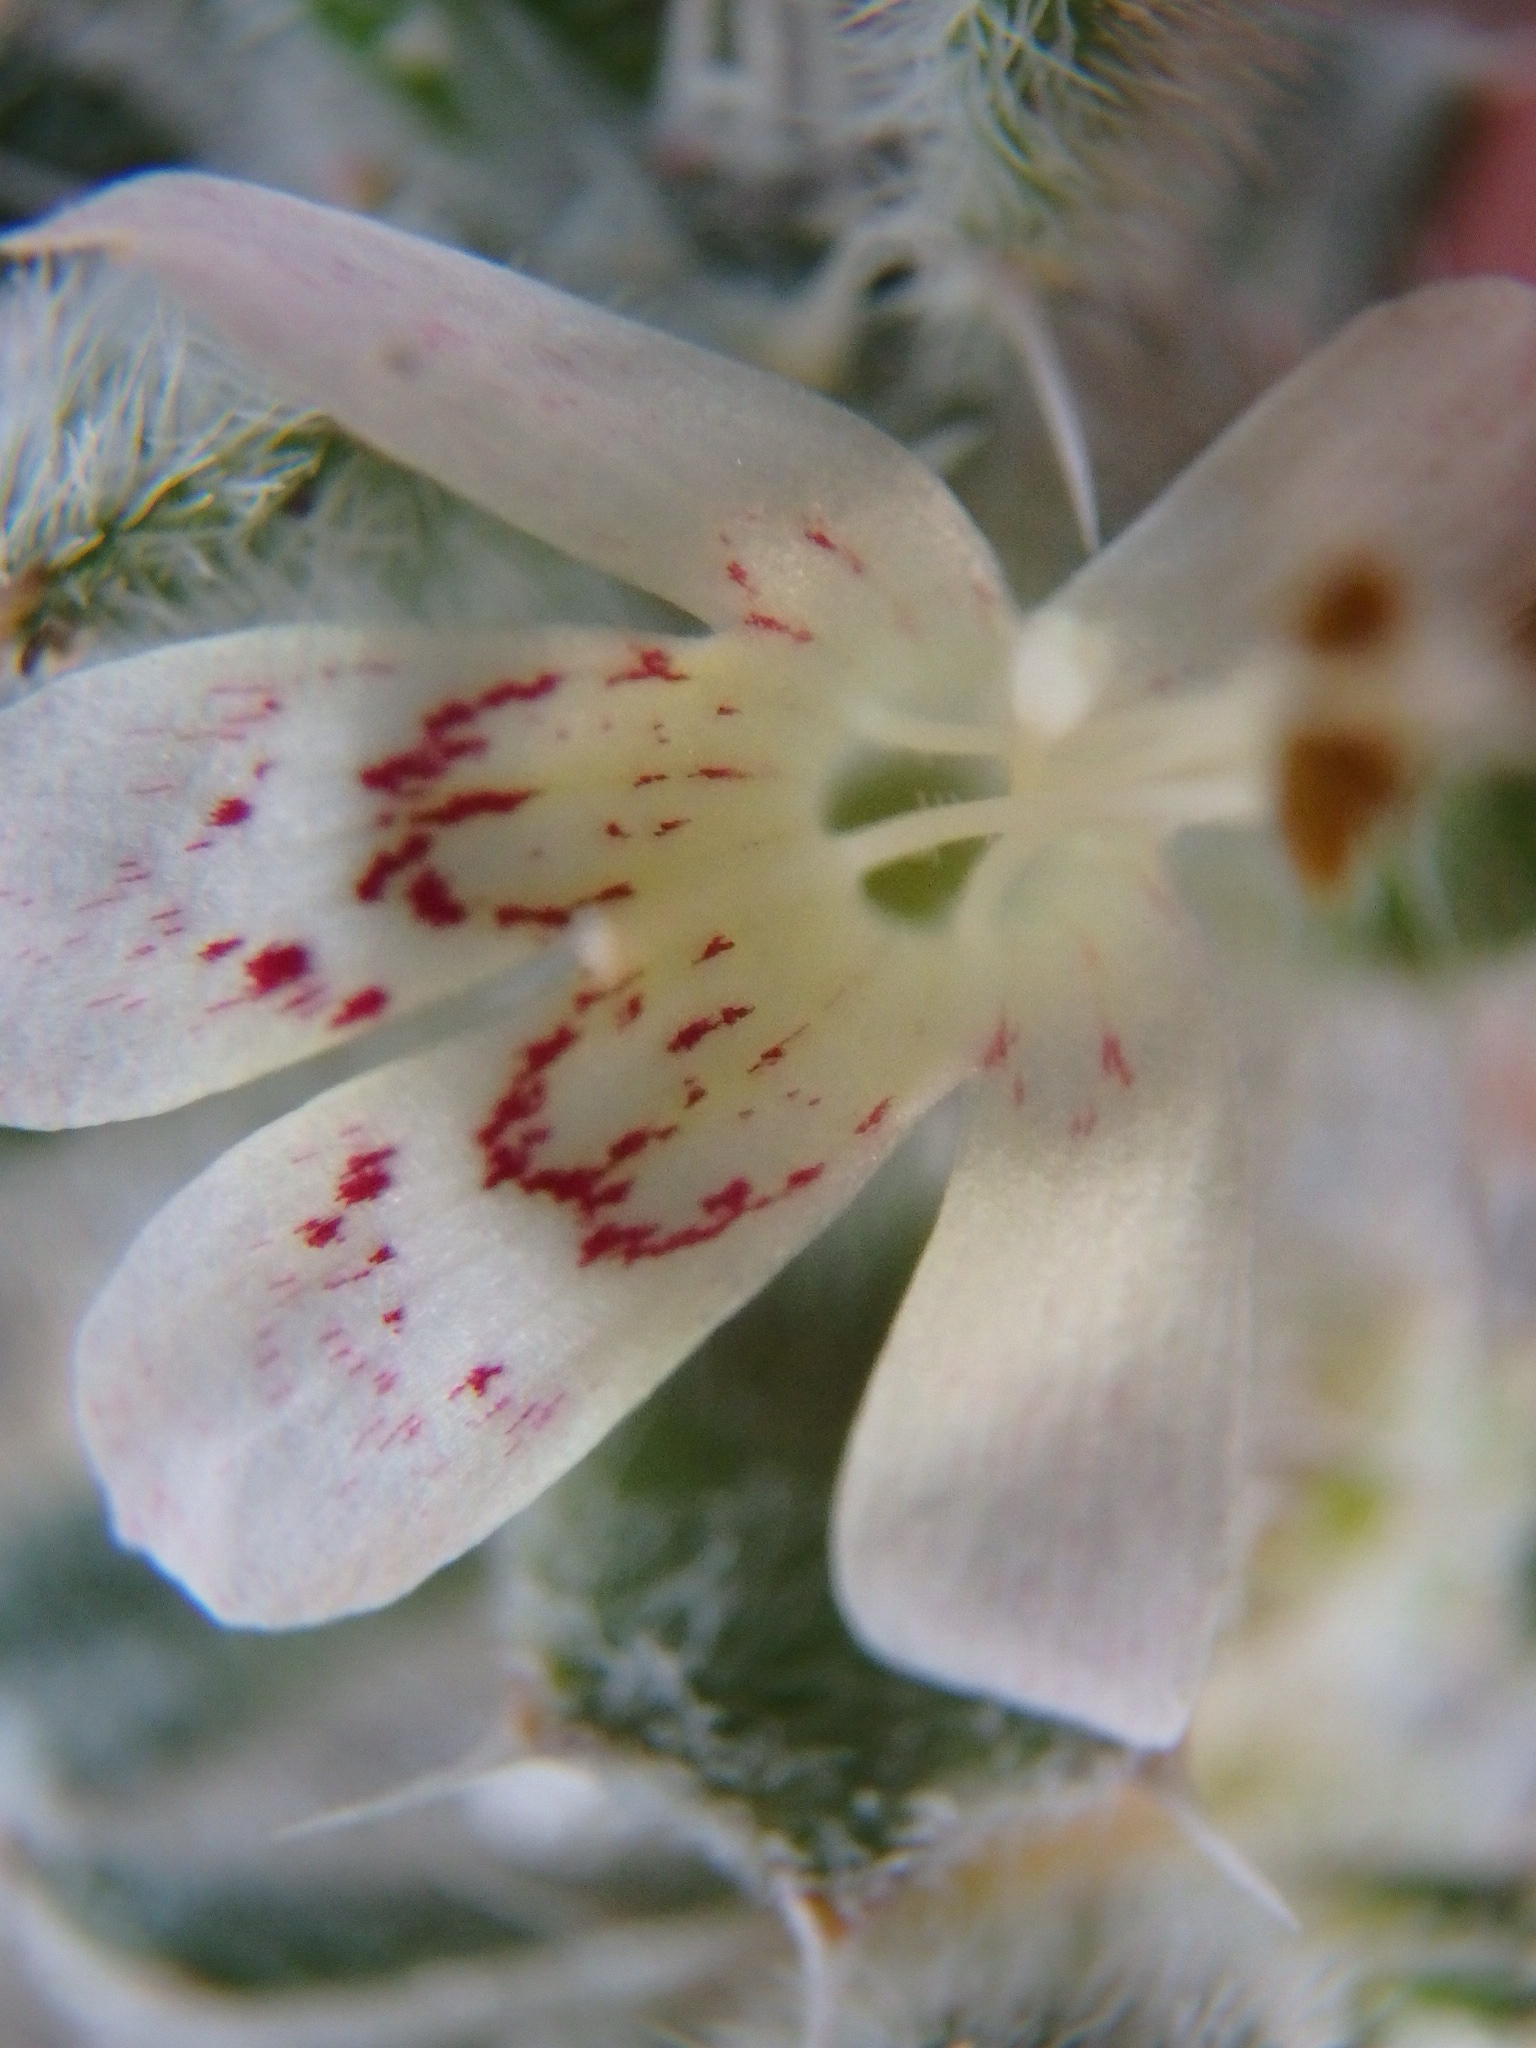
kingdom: Plantae
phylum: Tracheophyta
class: Magnoliopsida
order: Ericales
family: Polemoniaceae
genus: Loeseliastrum
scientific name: Loeseliastrum matthewsii
